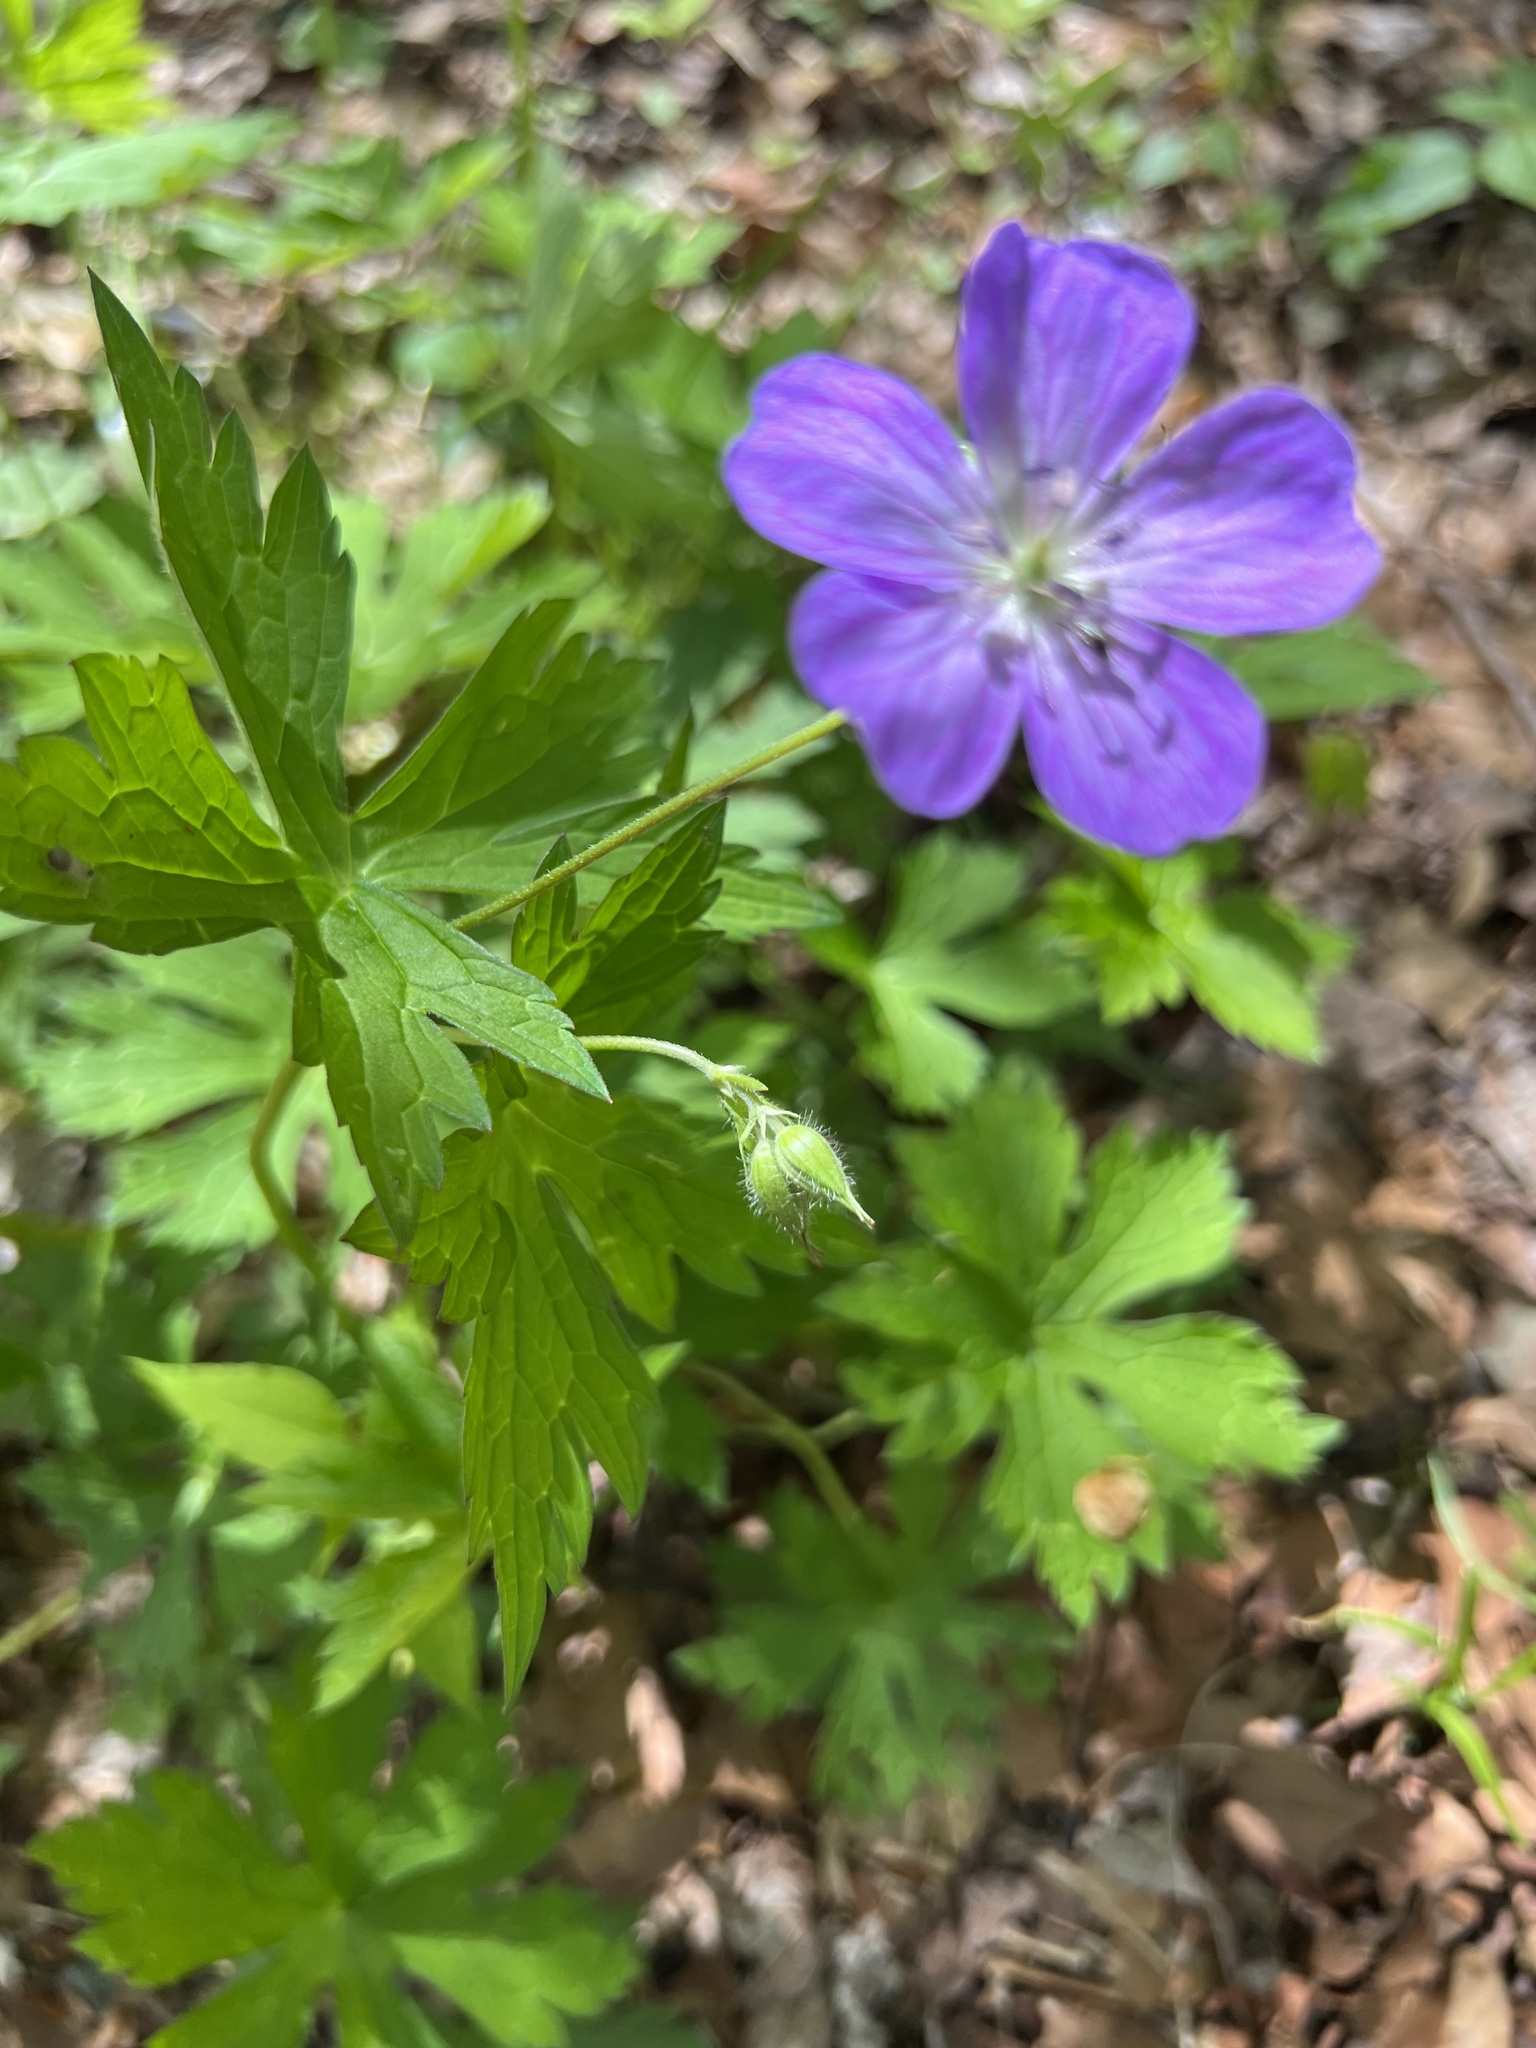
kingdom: Plantae
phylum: Tracheophyta
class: Magnoliopsida
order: Geraniales
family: Geraniaceae
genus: Geranium
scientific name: Geranium maculatum
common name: Spotted geranium
